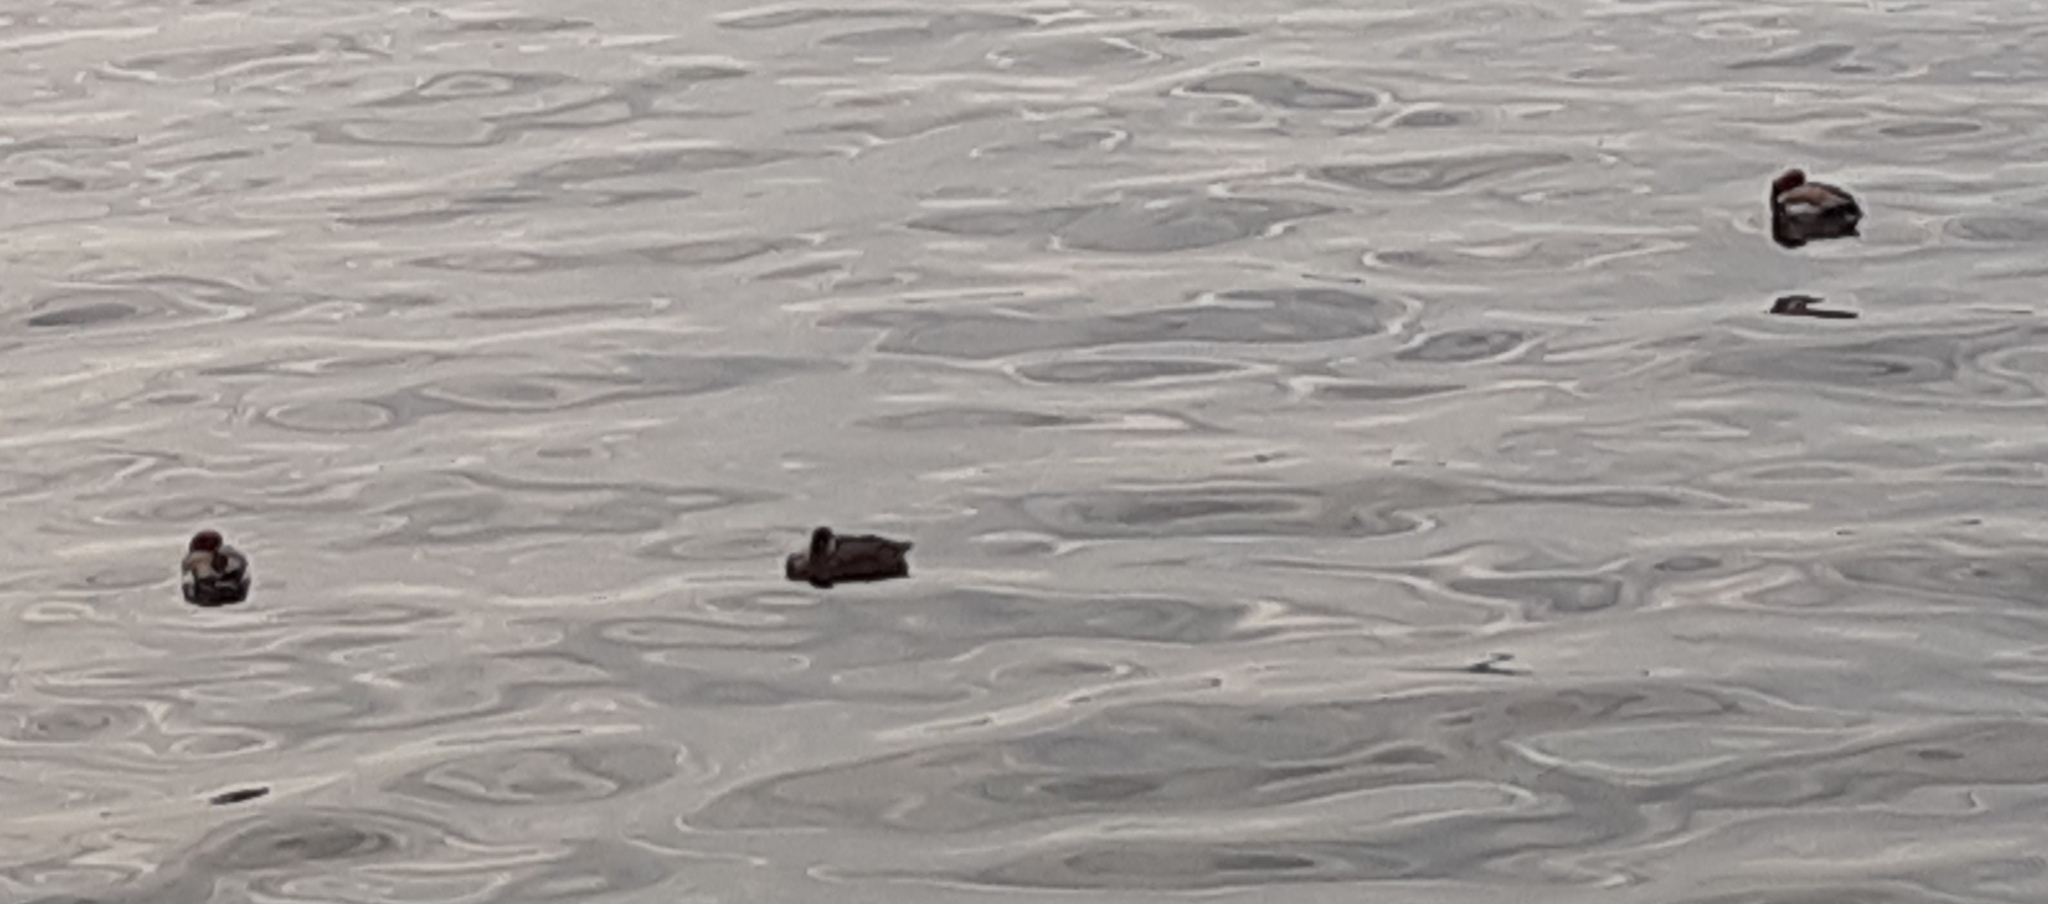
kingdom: Animalia
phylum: Chordata
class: Aves
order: Anseriformes
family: Anatidae
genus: Netta
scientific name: Netta rufina
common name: Red-crested pochard
